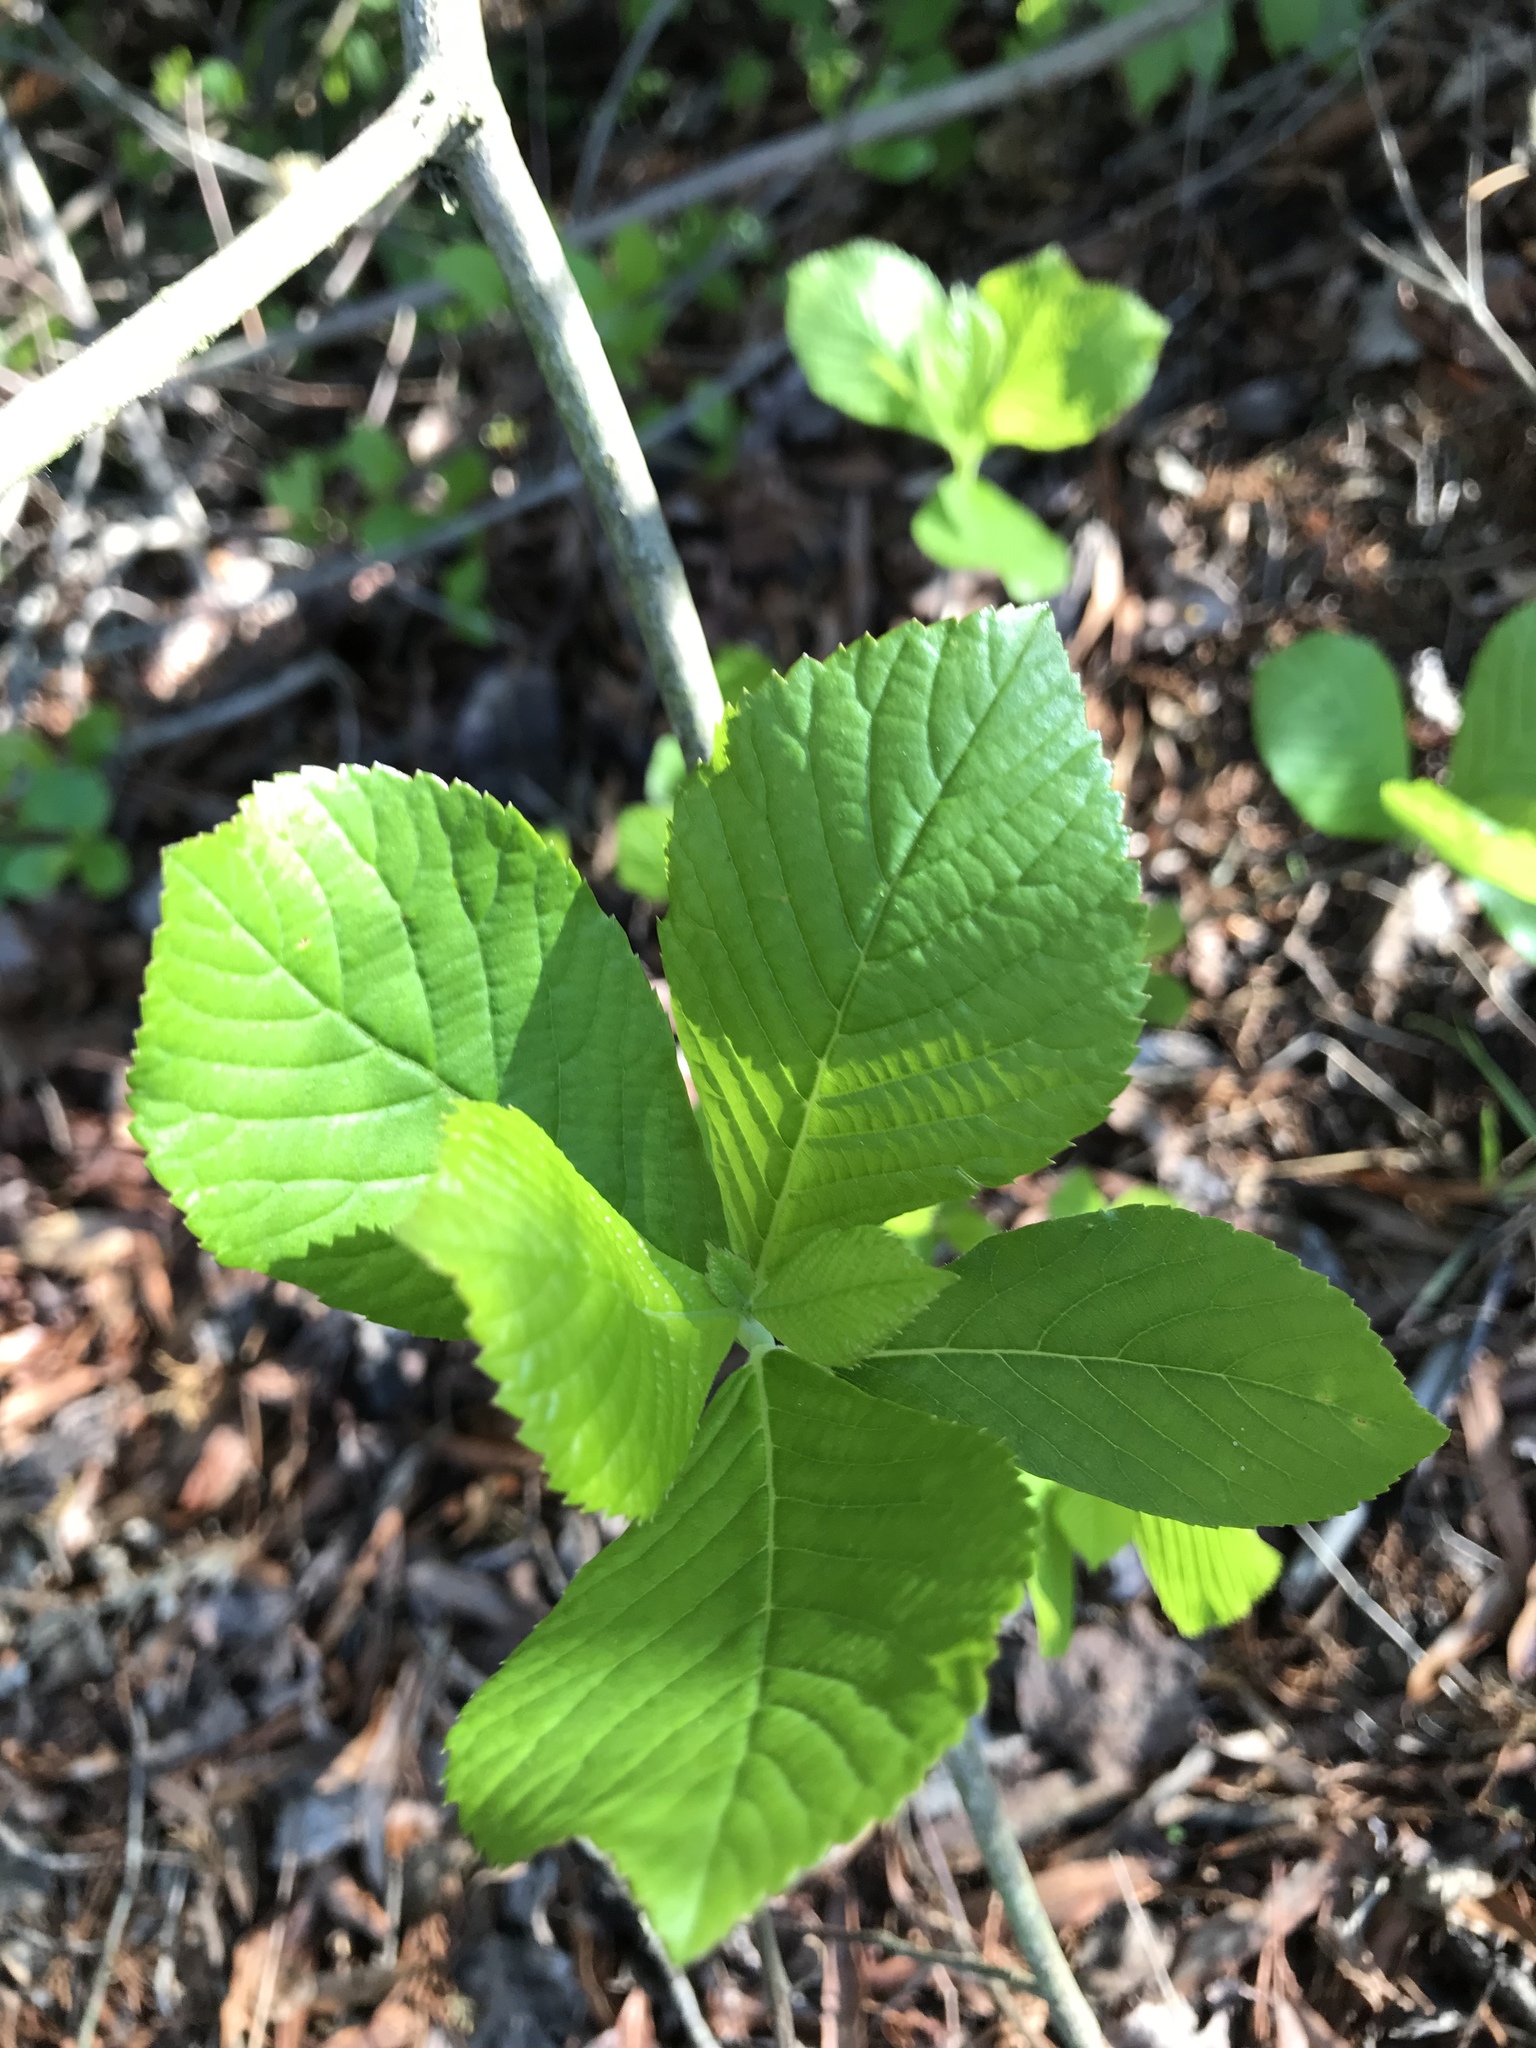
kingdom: Plantae
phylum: Tracheophyta
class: Magnoliopsida
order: Ericales
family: Clethraceae
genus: Clethra
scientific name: Clethra alnifolia
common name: Sweet pepperbush
